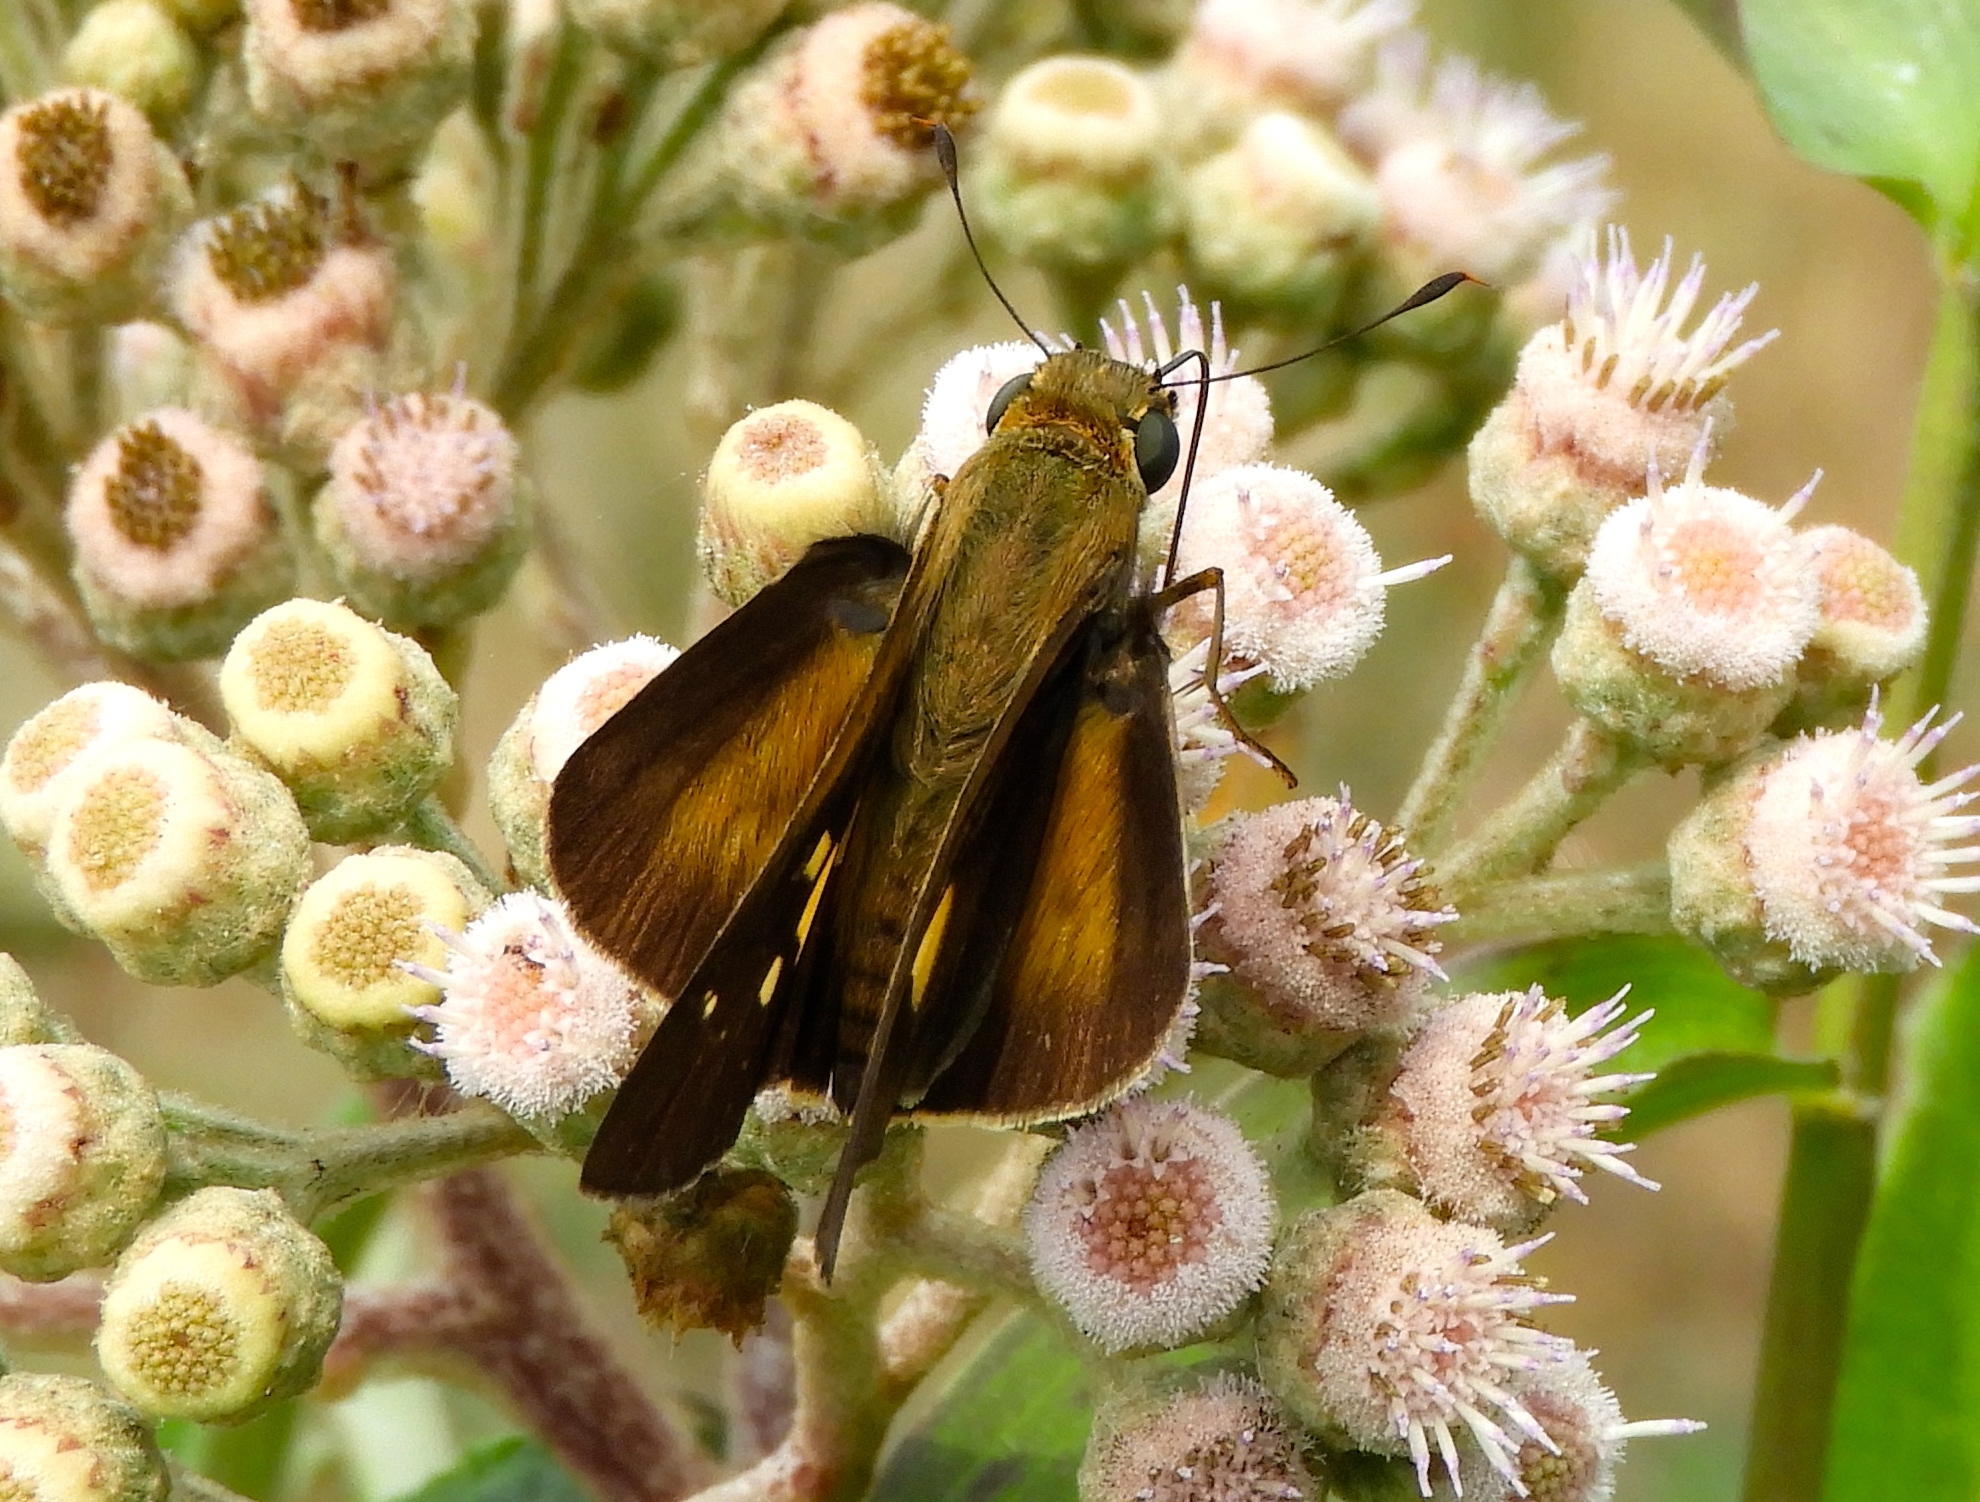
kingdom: Animalia
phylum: Arthropoda
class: Insecta
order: Lepidoptera
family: Hesperiidae
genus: Panoquina
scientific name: Panoquina fusina
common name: Evans' skipper
